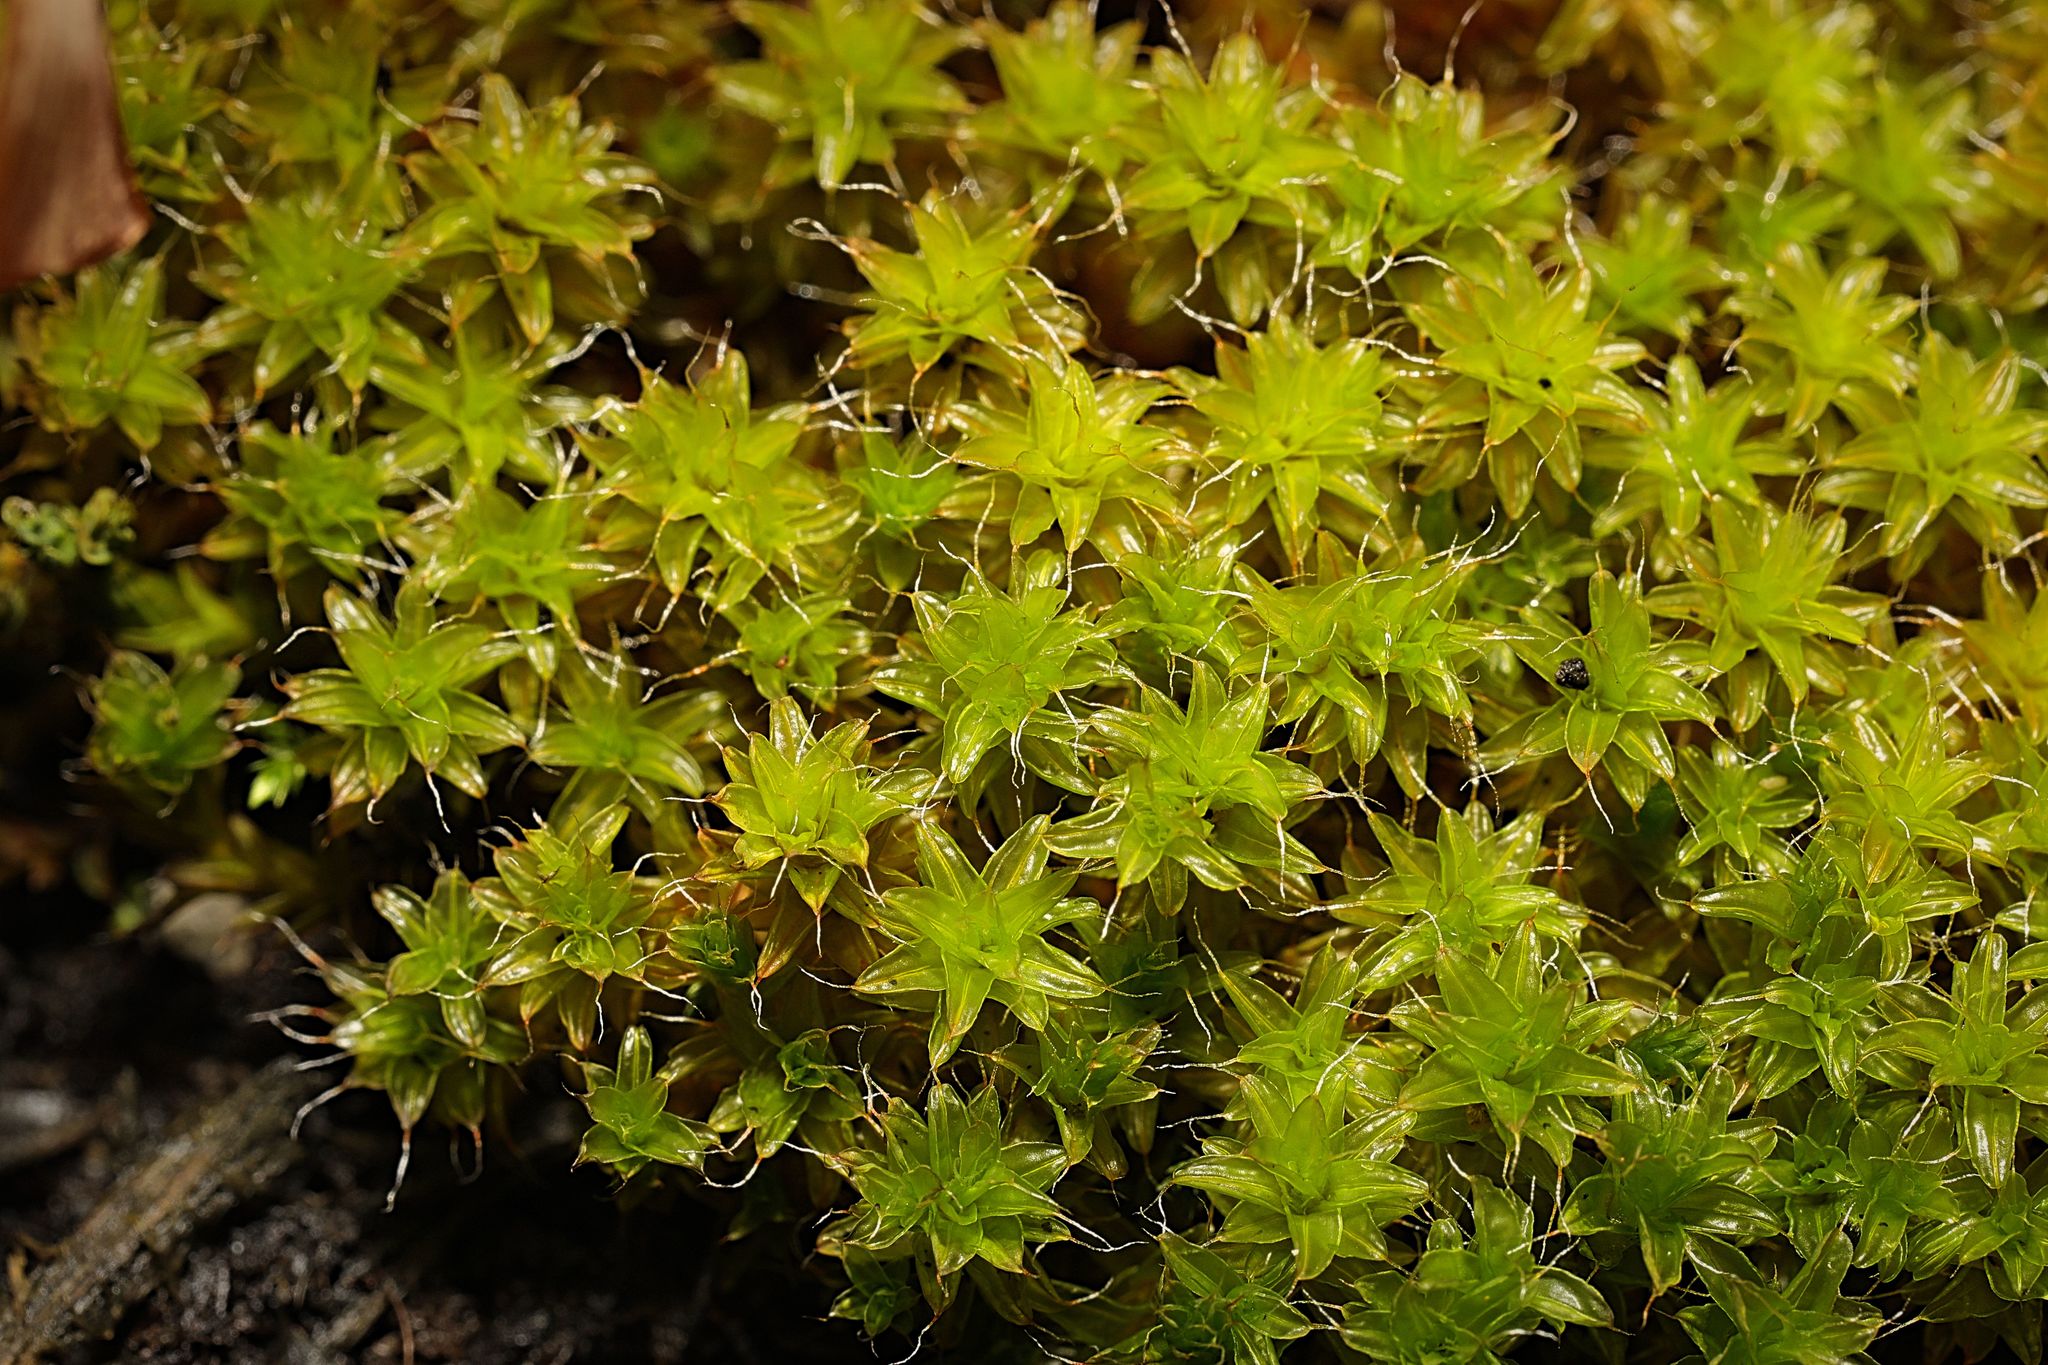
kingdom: Plantae
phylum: Bryophyta
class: Bryopsida
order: Pottiales
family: Pottiaceae
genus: Syntrichia
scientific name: Syntrichia ruralis
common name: Sidewalk screw moss
